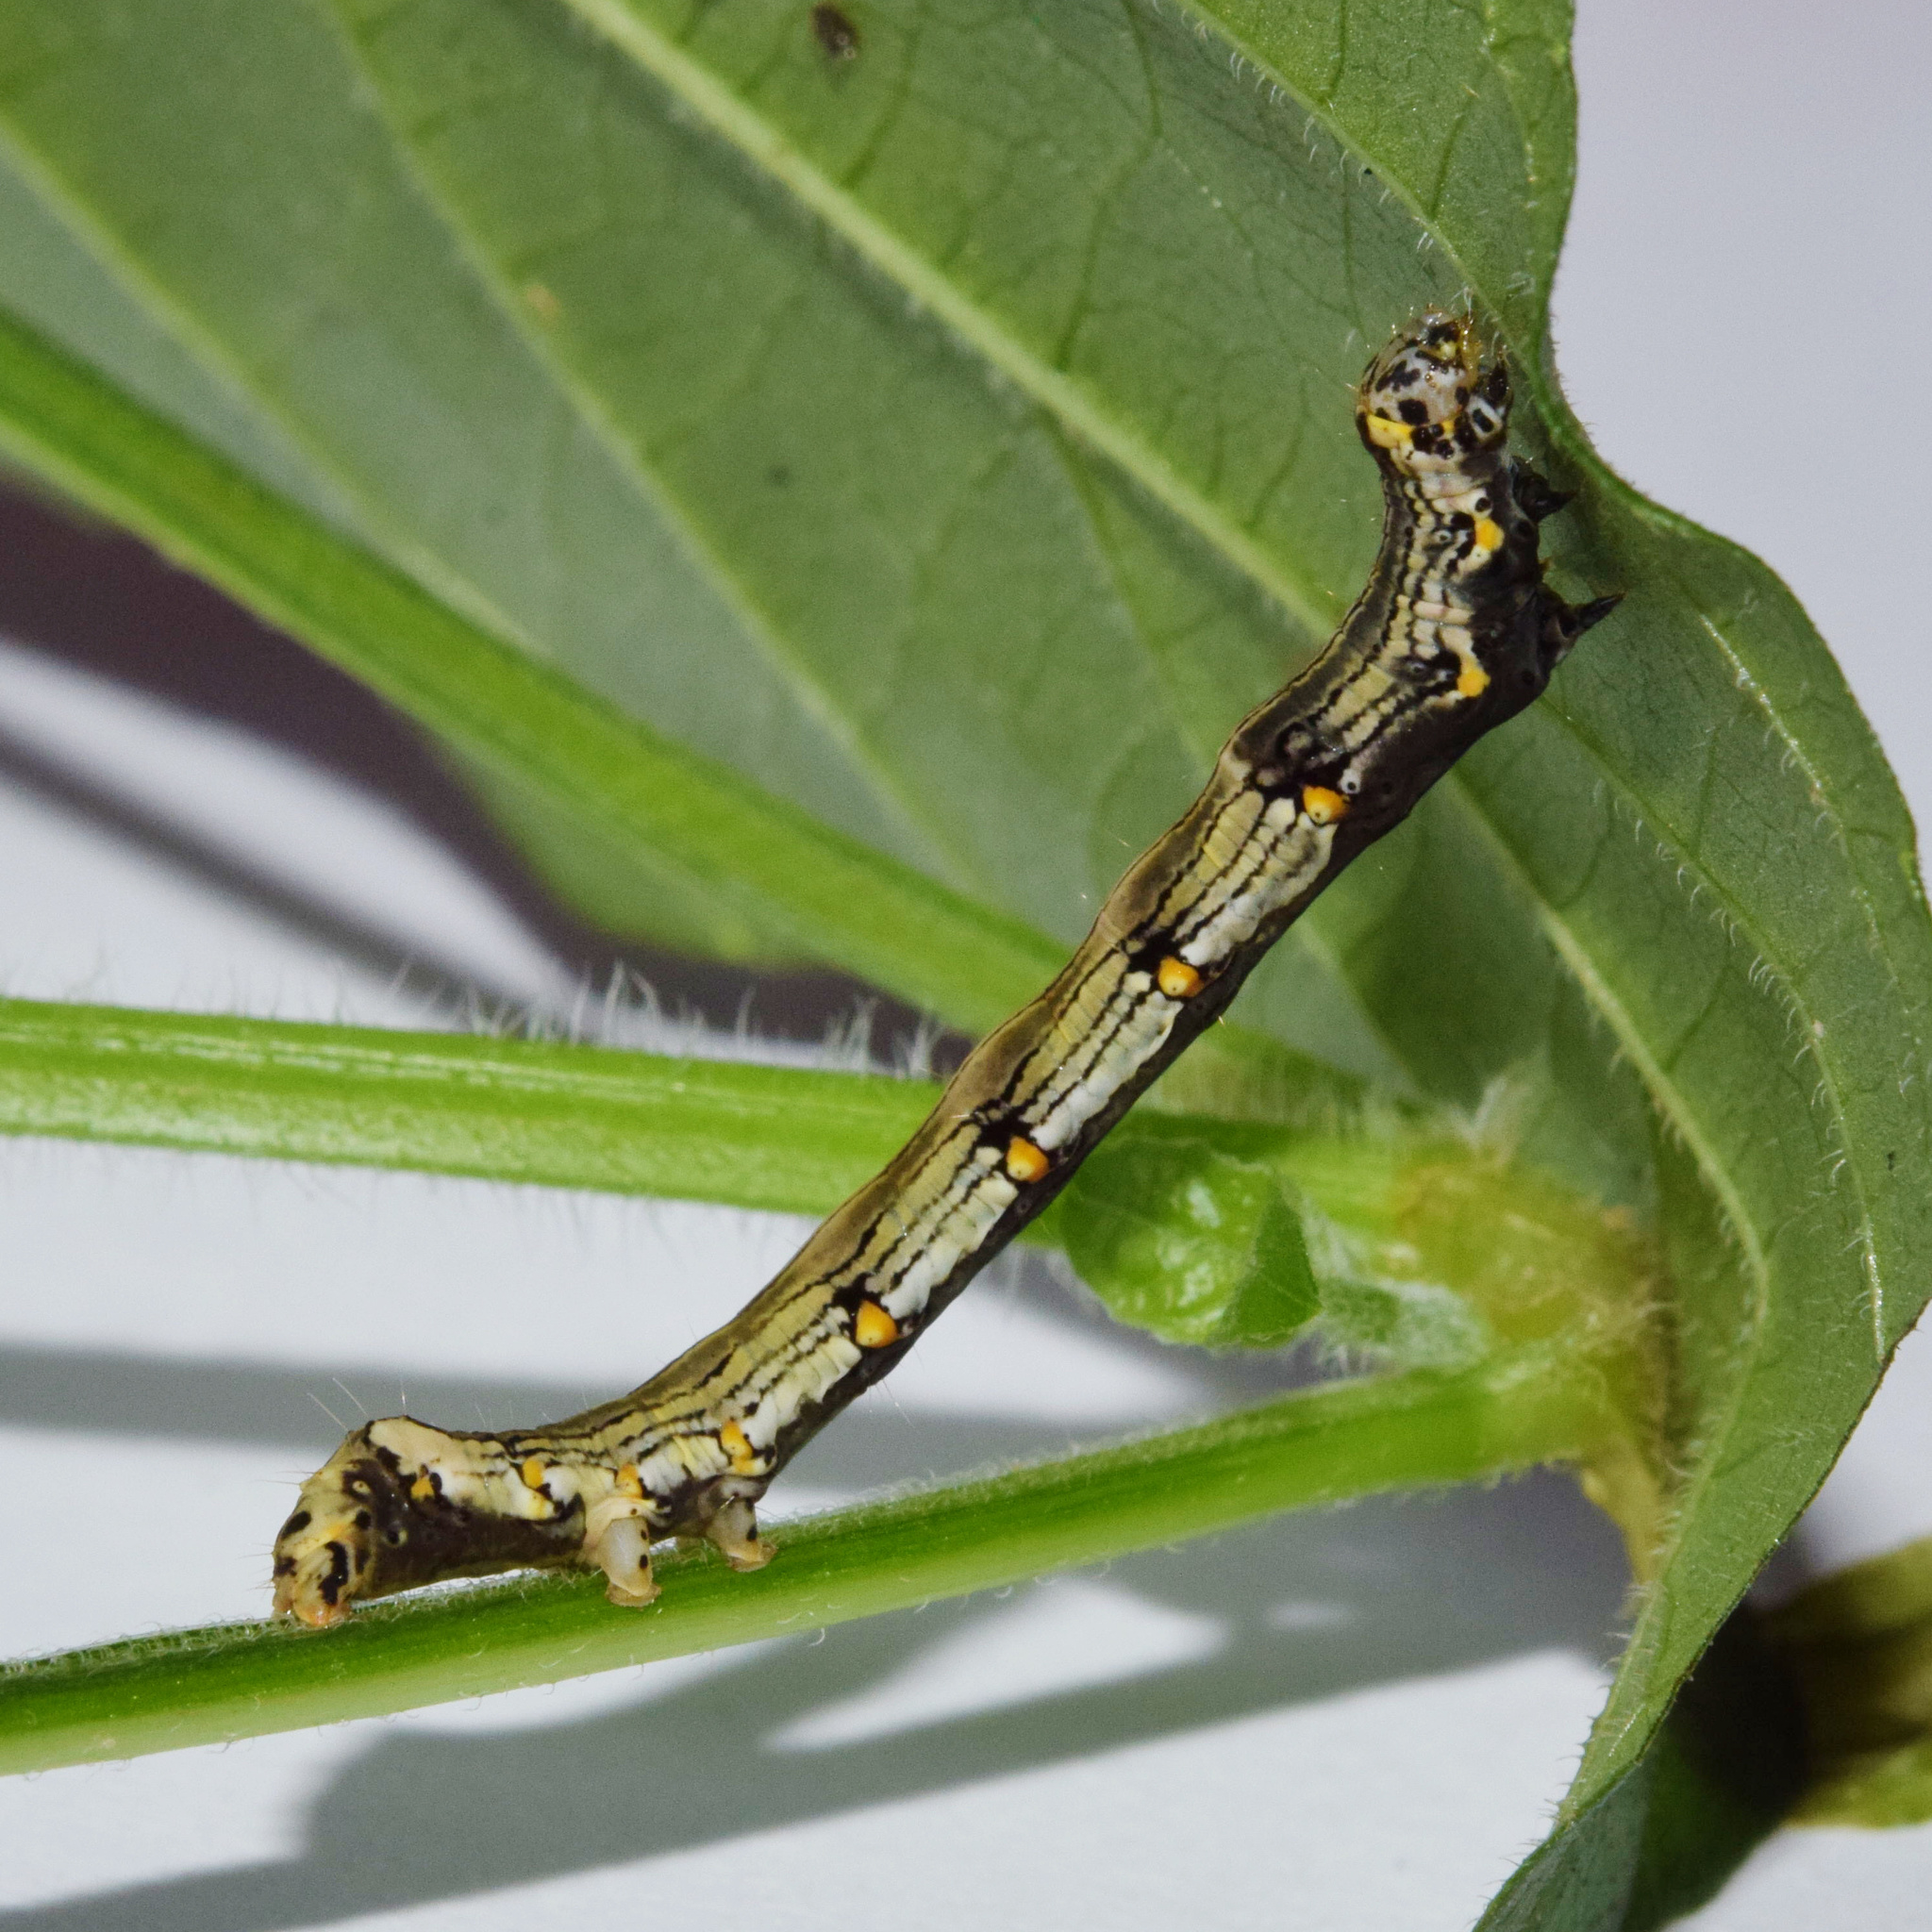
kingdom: Animalia
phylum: Arthropoda
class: Insecta
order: Lepidoptera
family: Noctuidae
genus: Ozarba
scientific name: Ozarba abscissa
